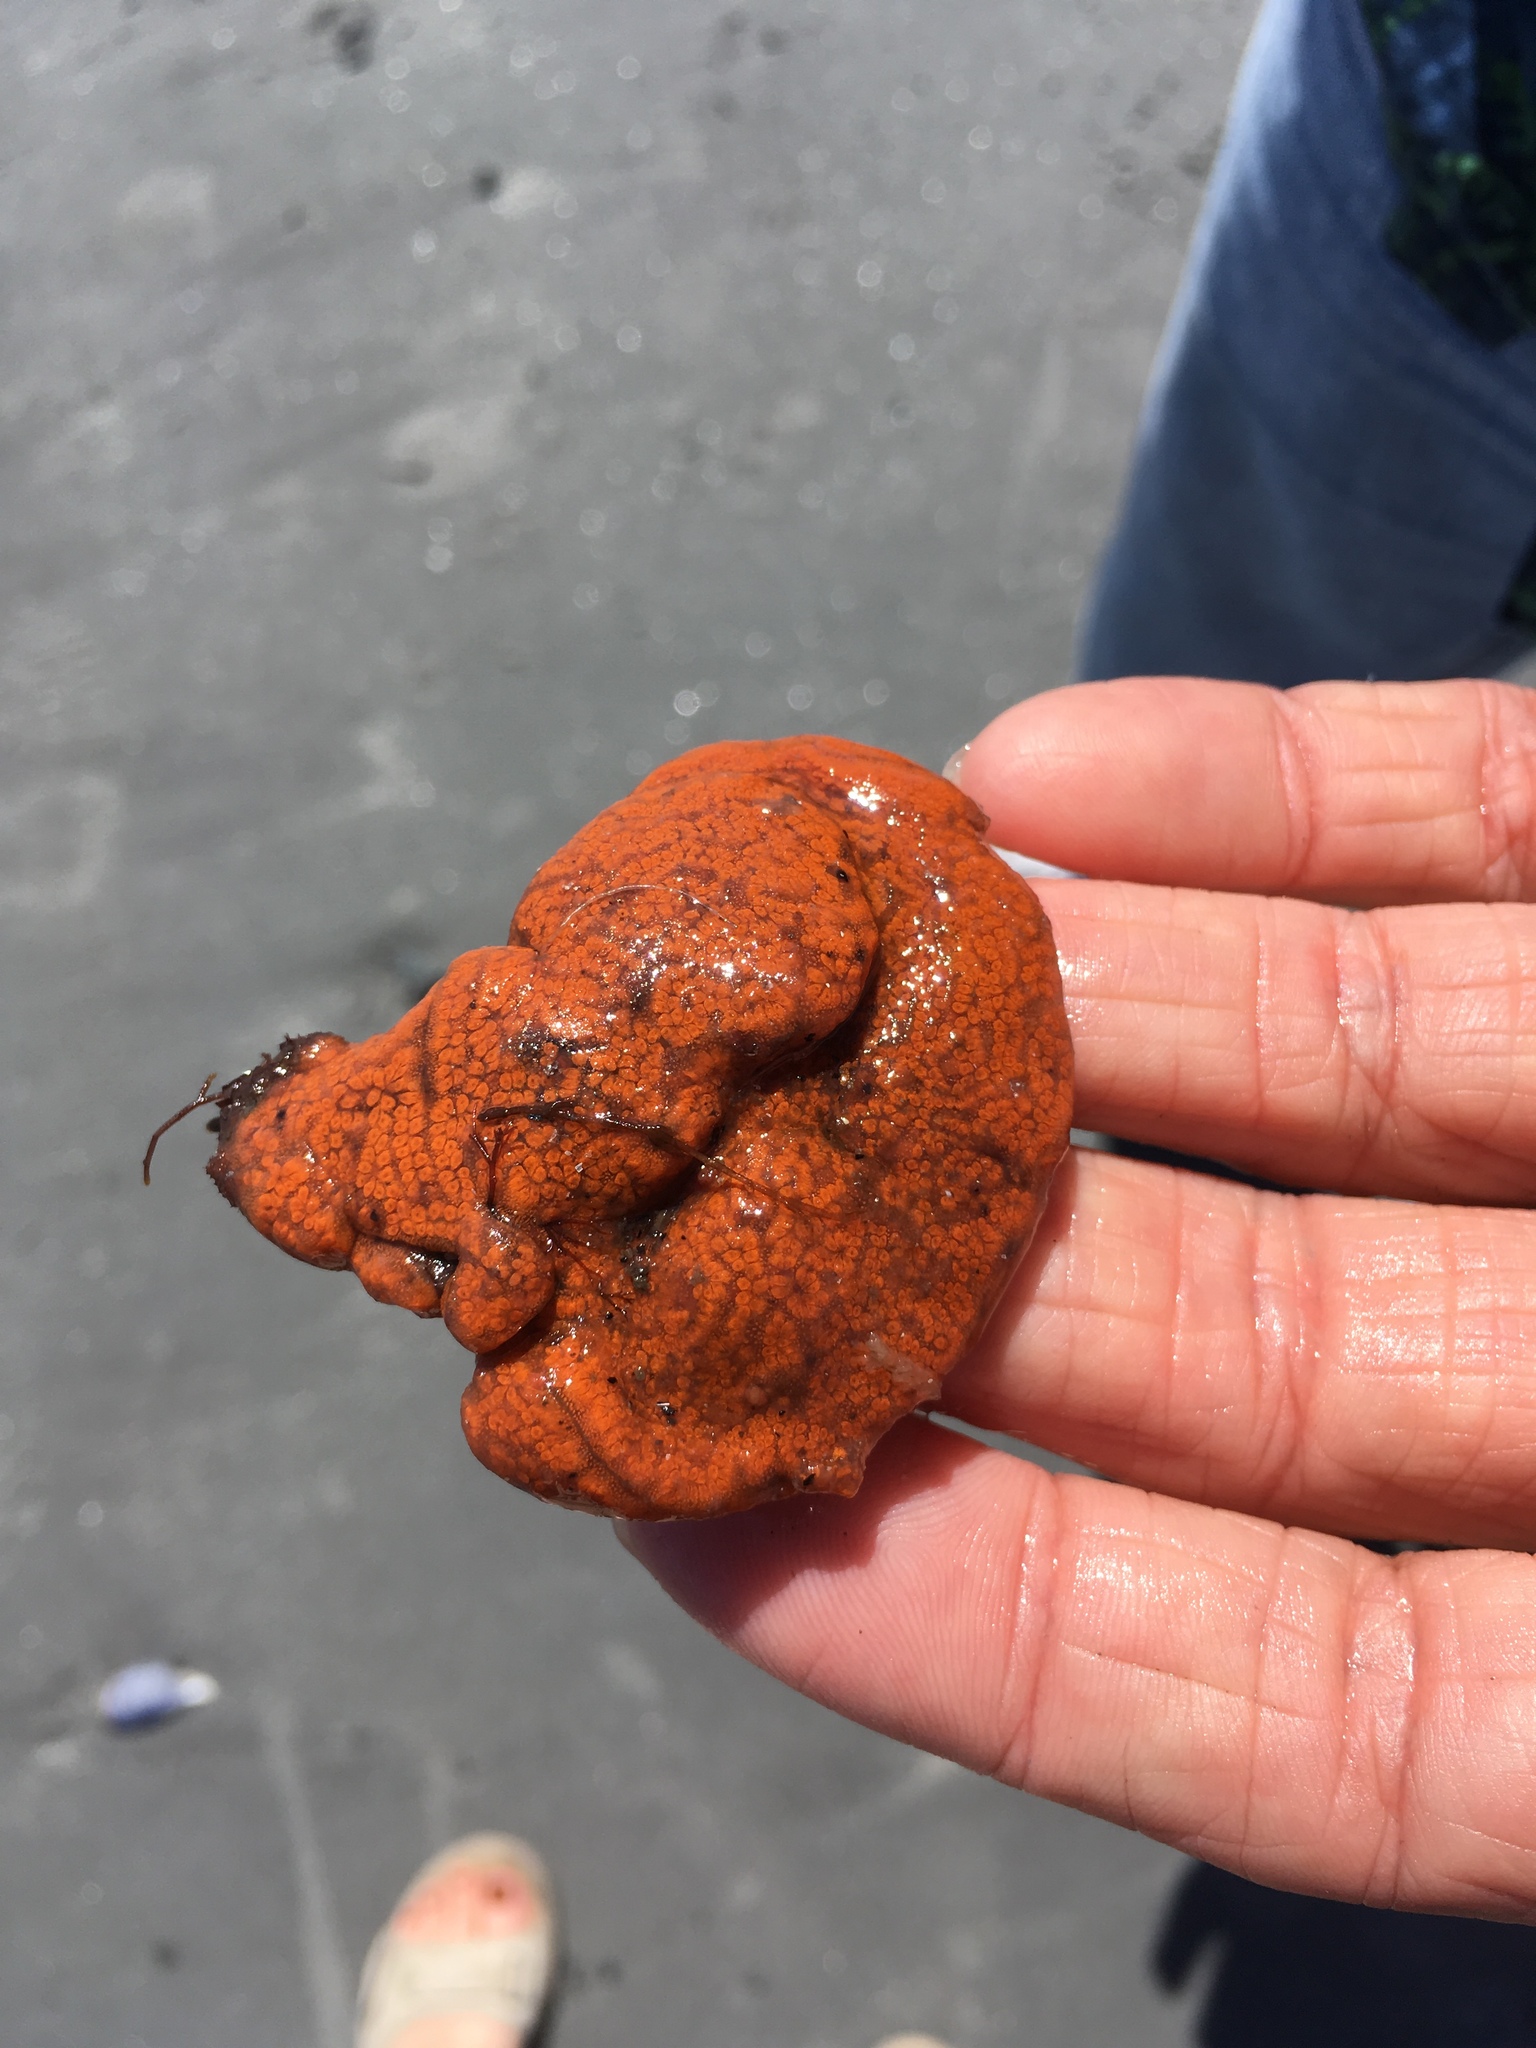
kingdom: Animalia
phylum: Chordata
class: Ascidiacea
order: Stolidobranchia
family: Styelidae
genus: Botrylloides
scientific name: Botrylloides violaceus
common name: Colonial sea squirt
